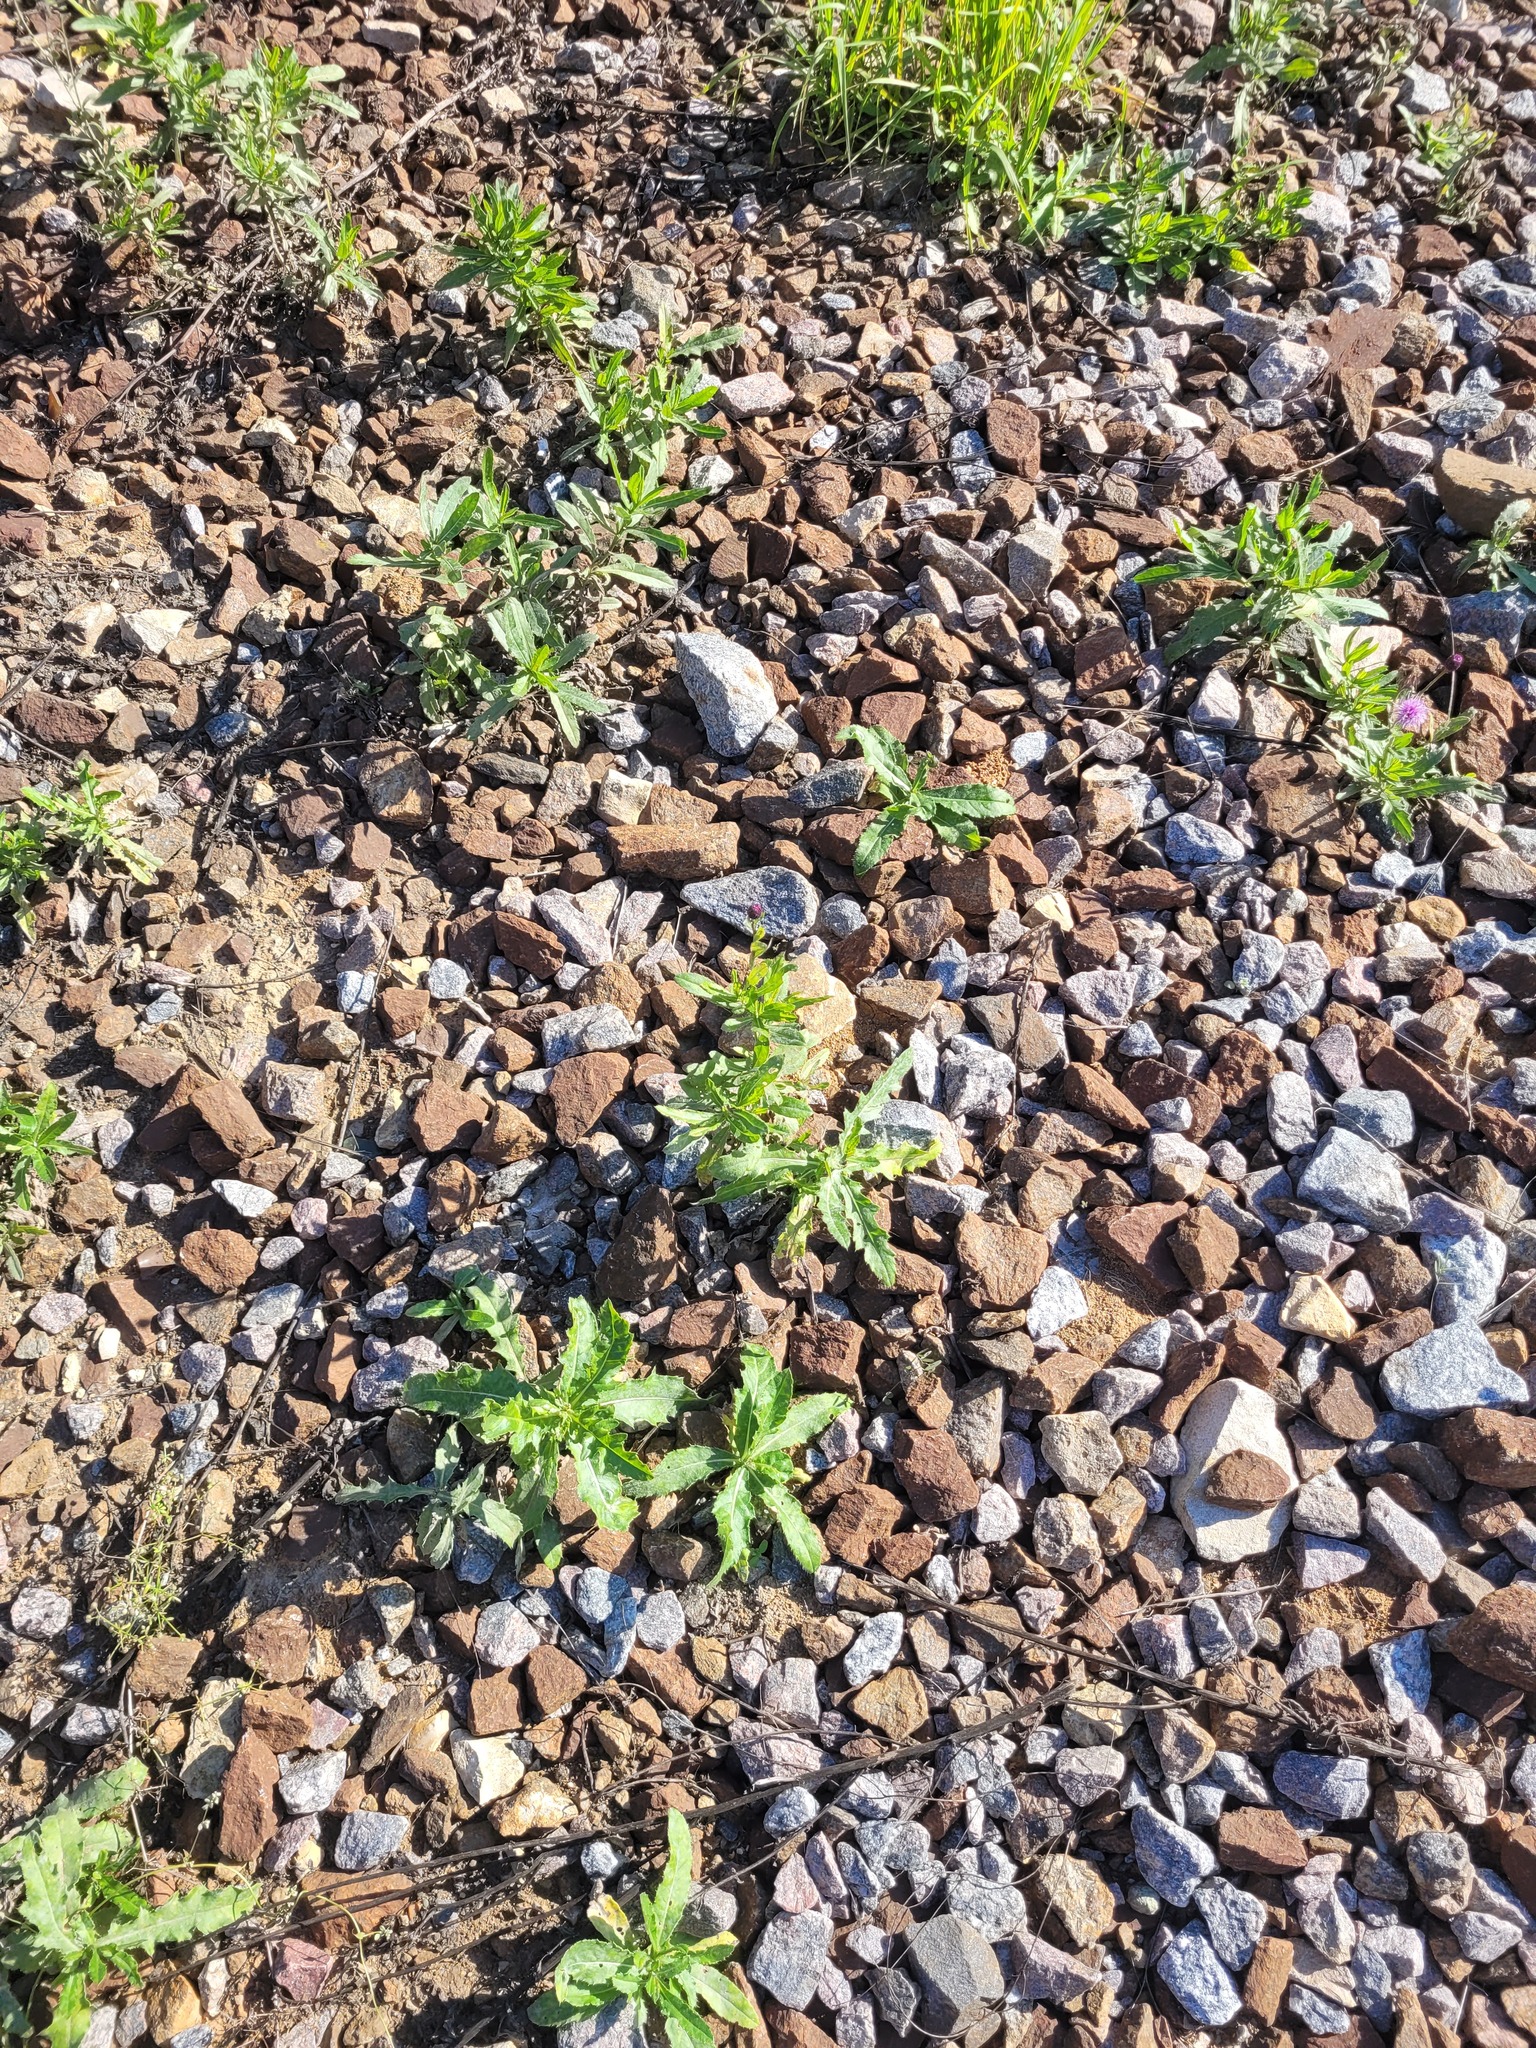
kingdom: Plantae
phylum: Tracheophyta
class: Magnoliopsida
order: Asterales
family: Asteraceae
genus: Cirsium
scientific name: Cirsium arvense
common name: Creeping thistle
